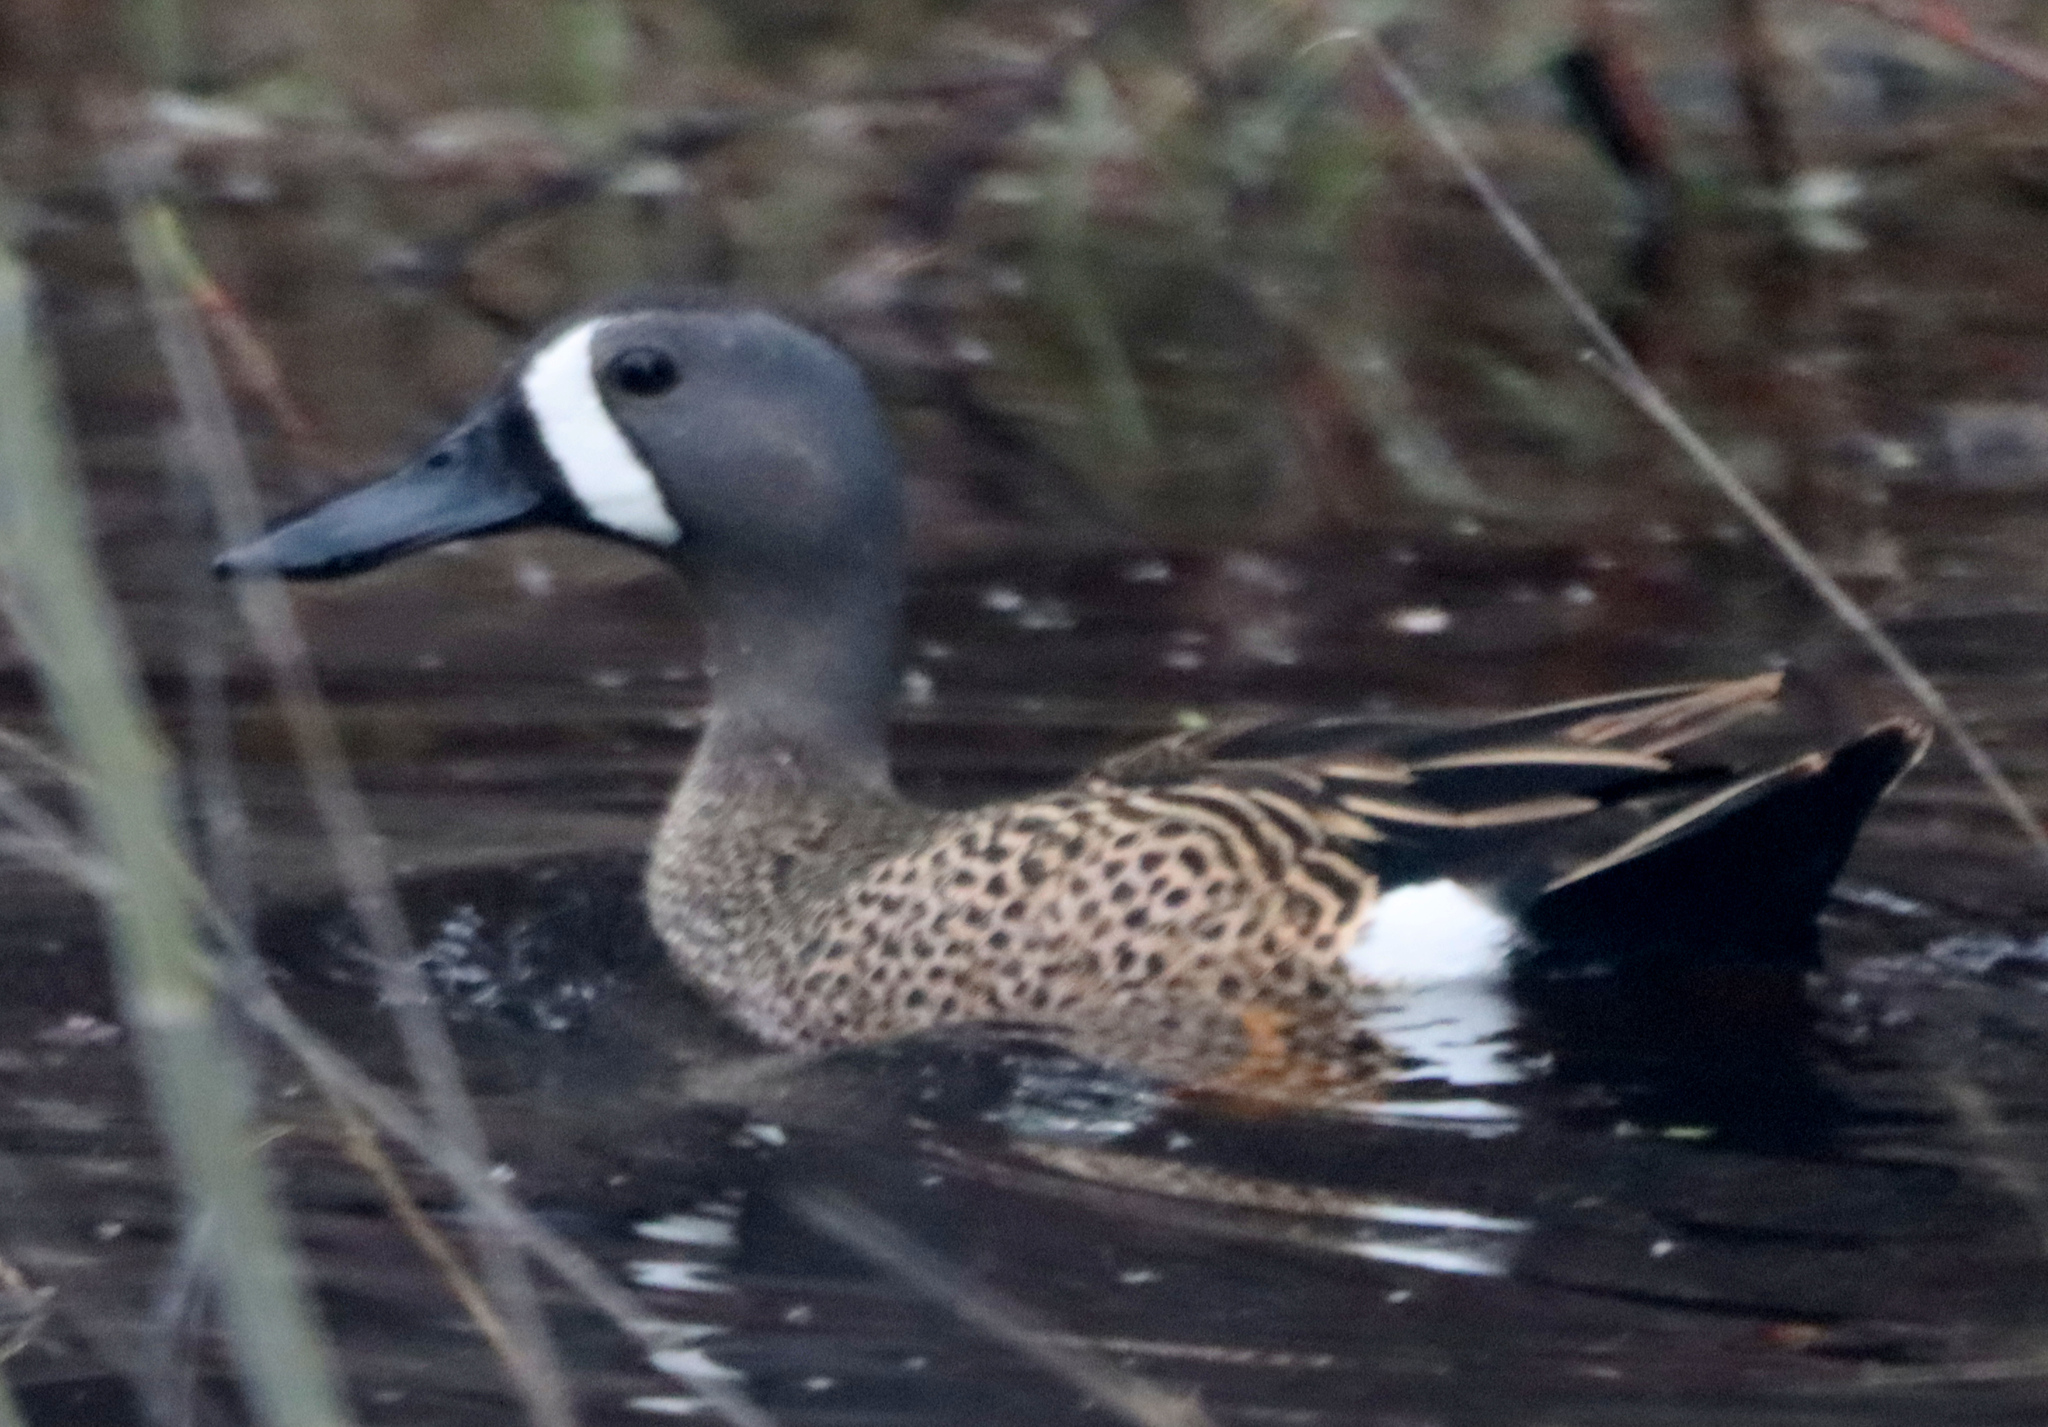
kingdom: Animalia
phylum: Chordata
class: Aves
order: Anseriformes
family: Anatidae
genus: Spatula
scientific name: Spatula discors
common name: Blue-winged teal
